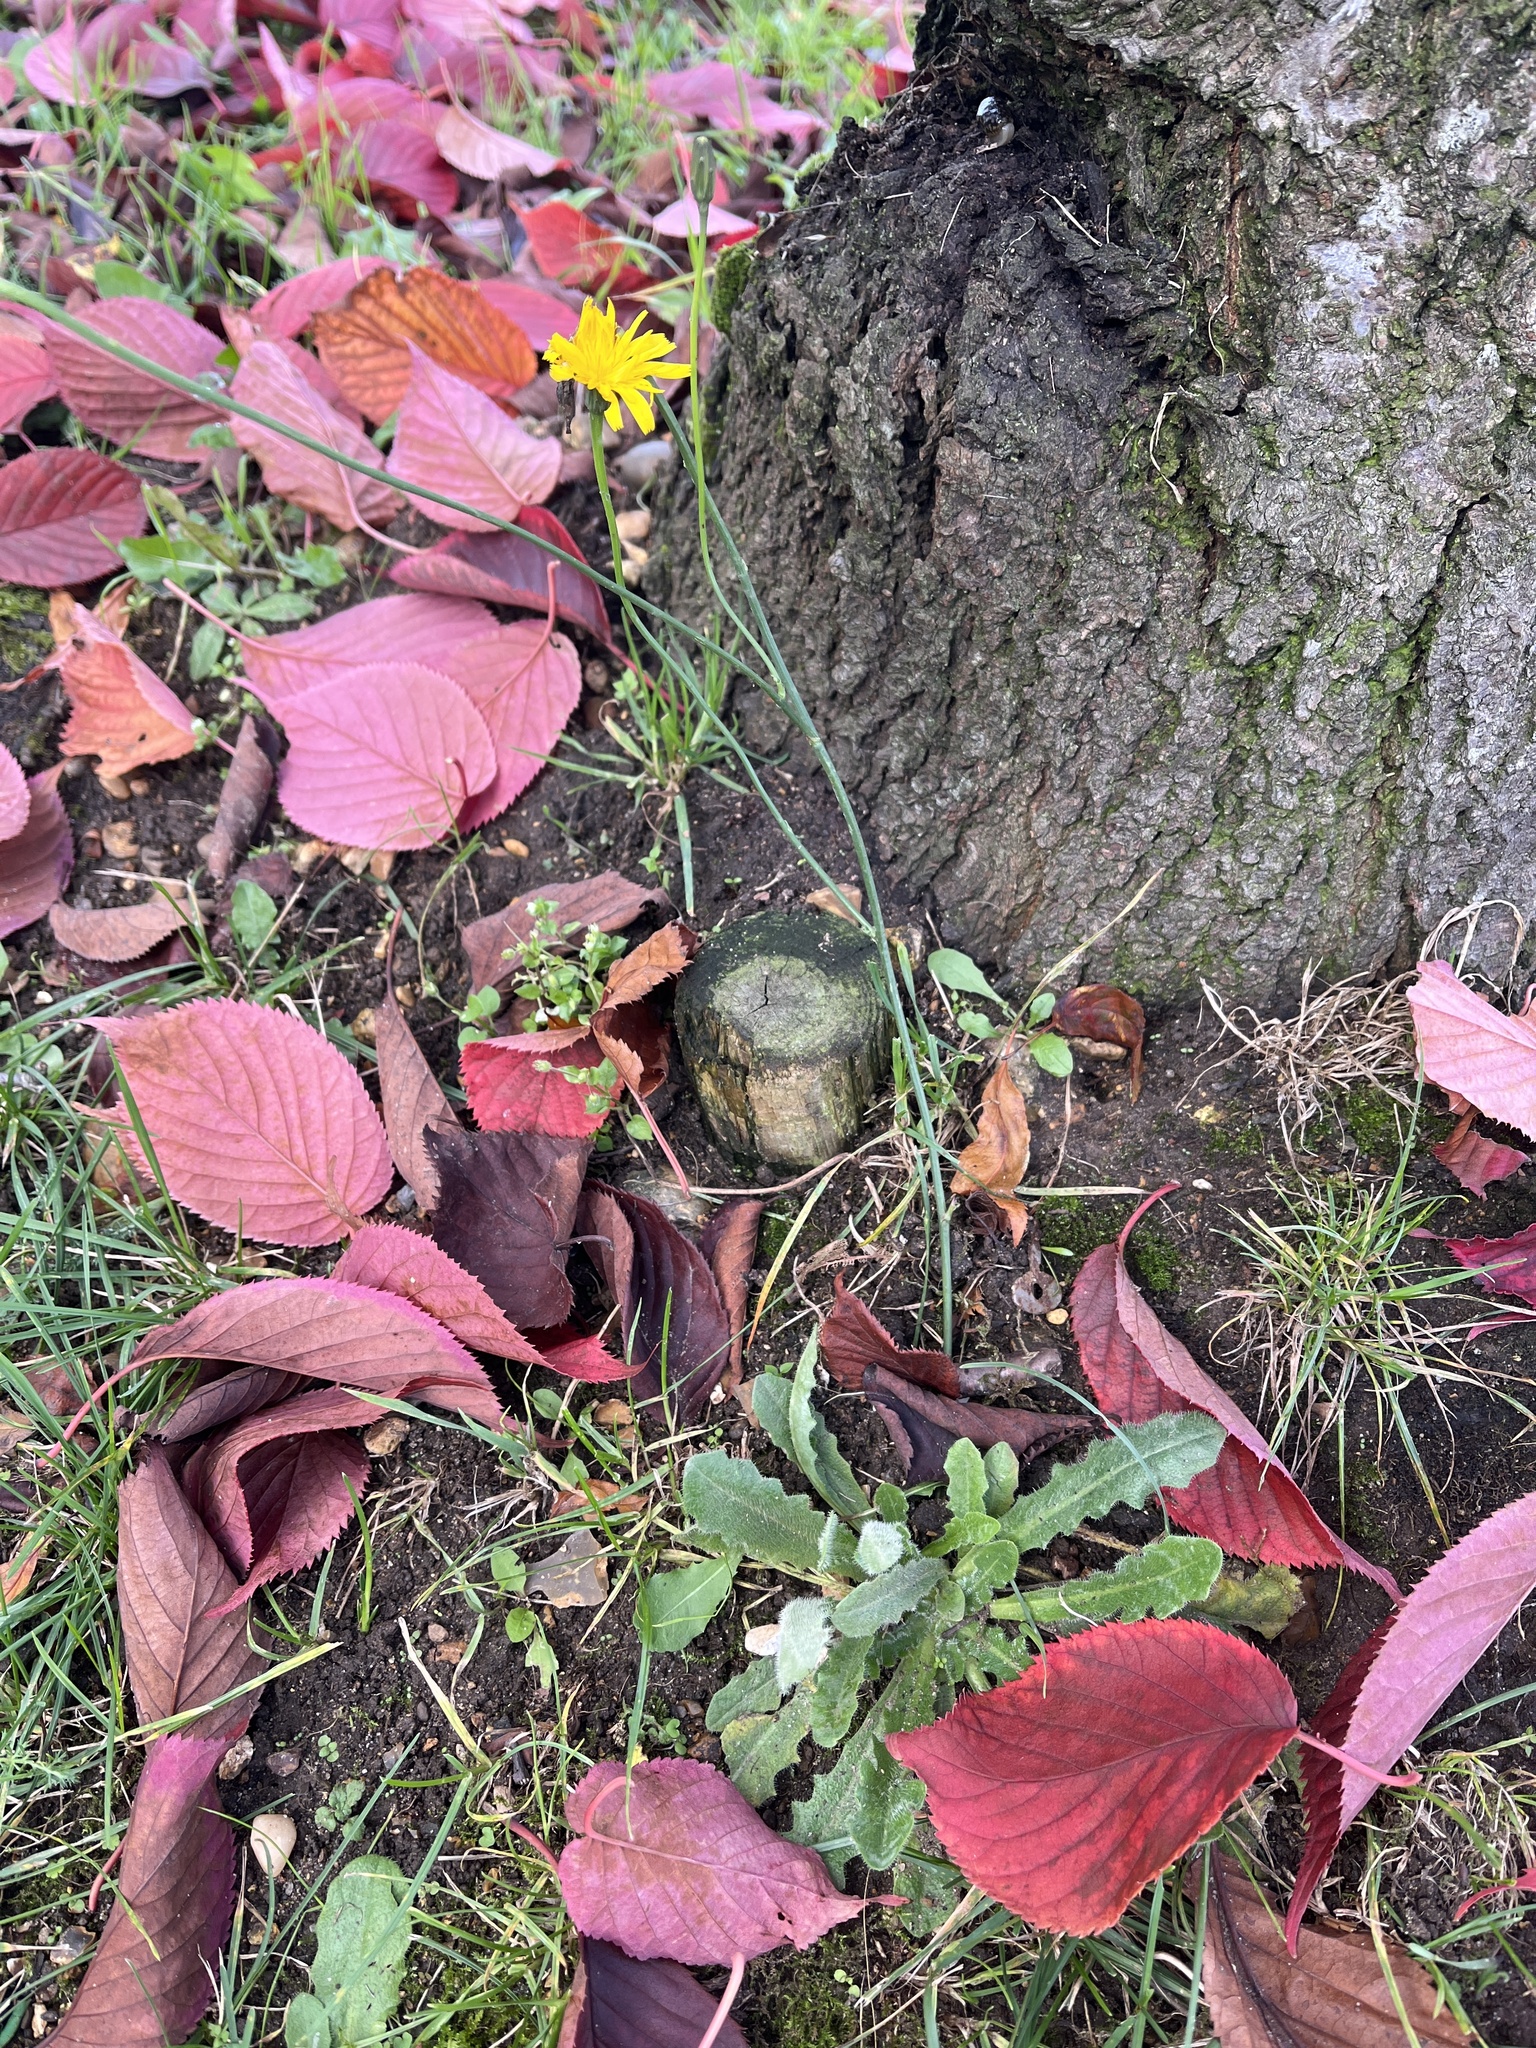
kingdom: Plantae
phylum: Tracheophyta
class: Magnoliopsida
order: Asterales
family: Asteraceae
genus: Hypochaeris
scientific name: Hypochaeris radicata
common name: Flatweed
